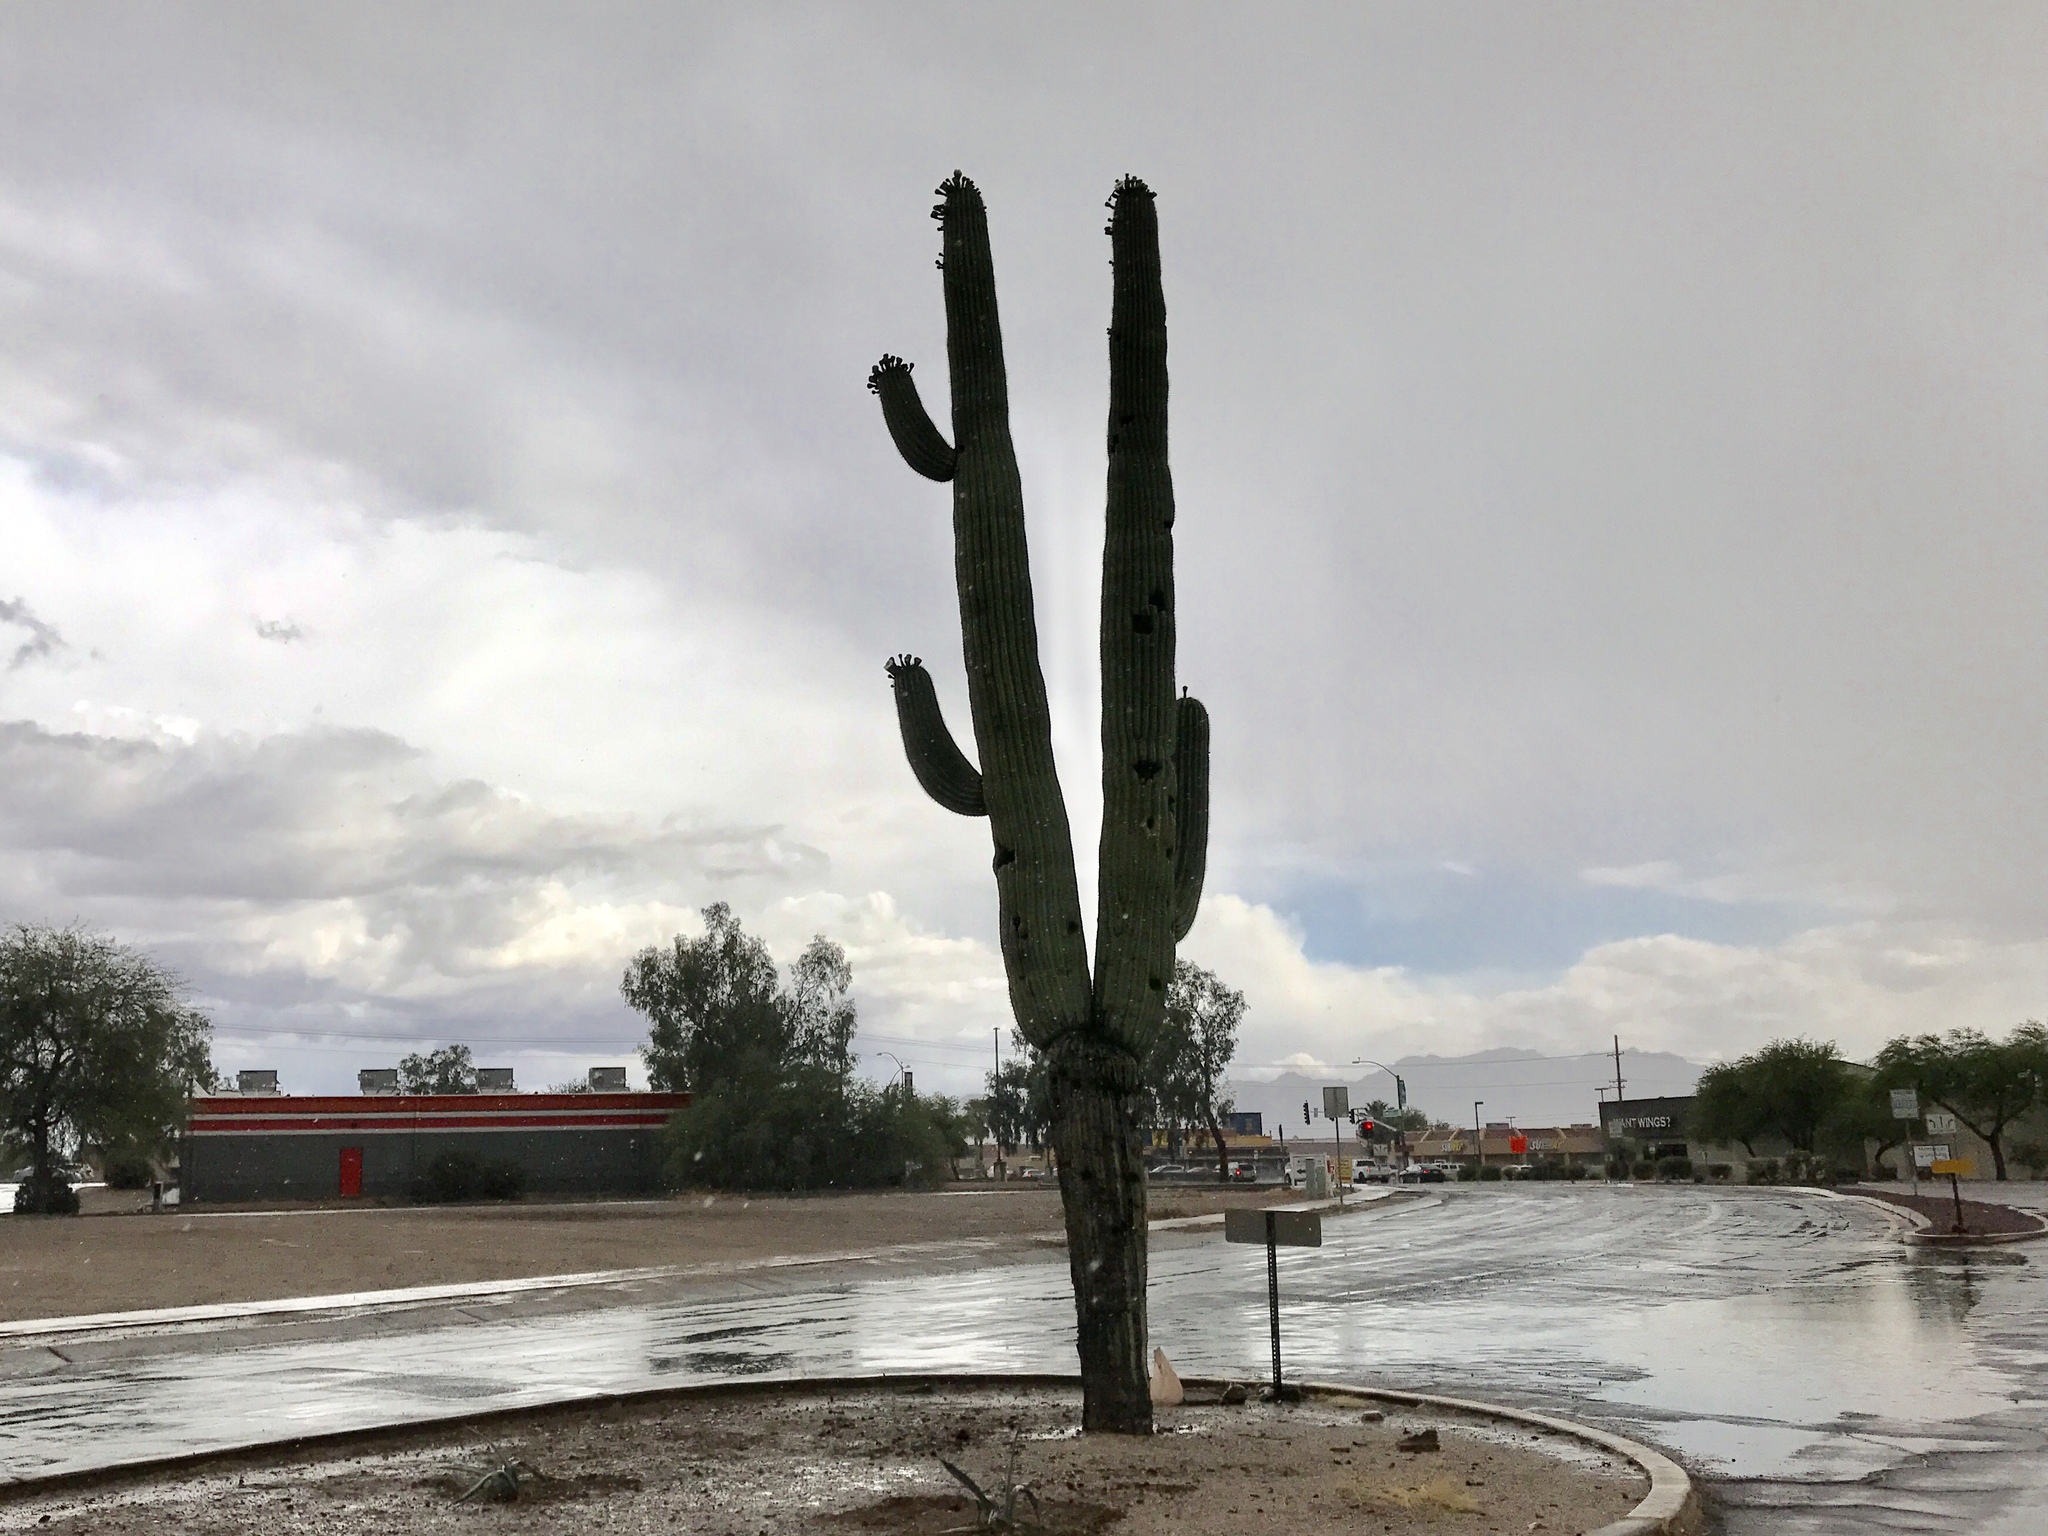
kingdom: Plantae
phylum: Tracheophyta
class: Magnoliopsida
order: Caryophyllales
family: Cactaceae
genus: Carnegiea
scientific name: Carnegiea gigantea
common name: Saguaro
